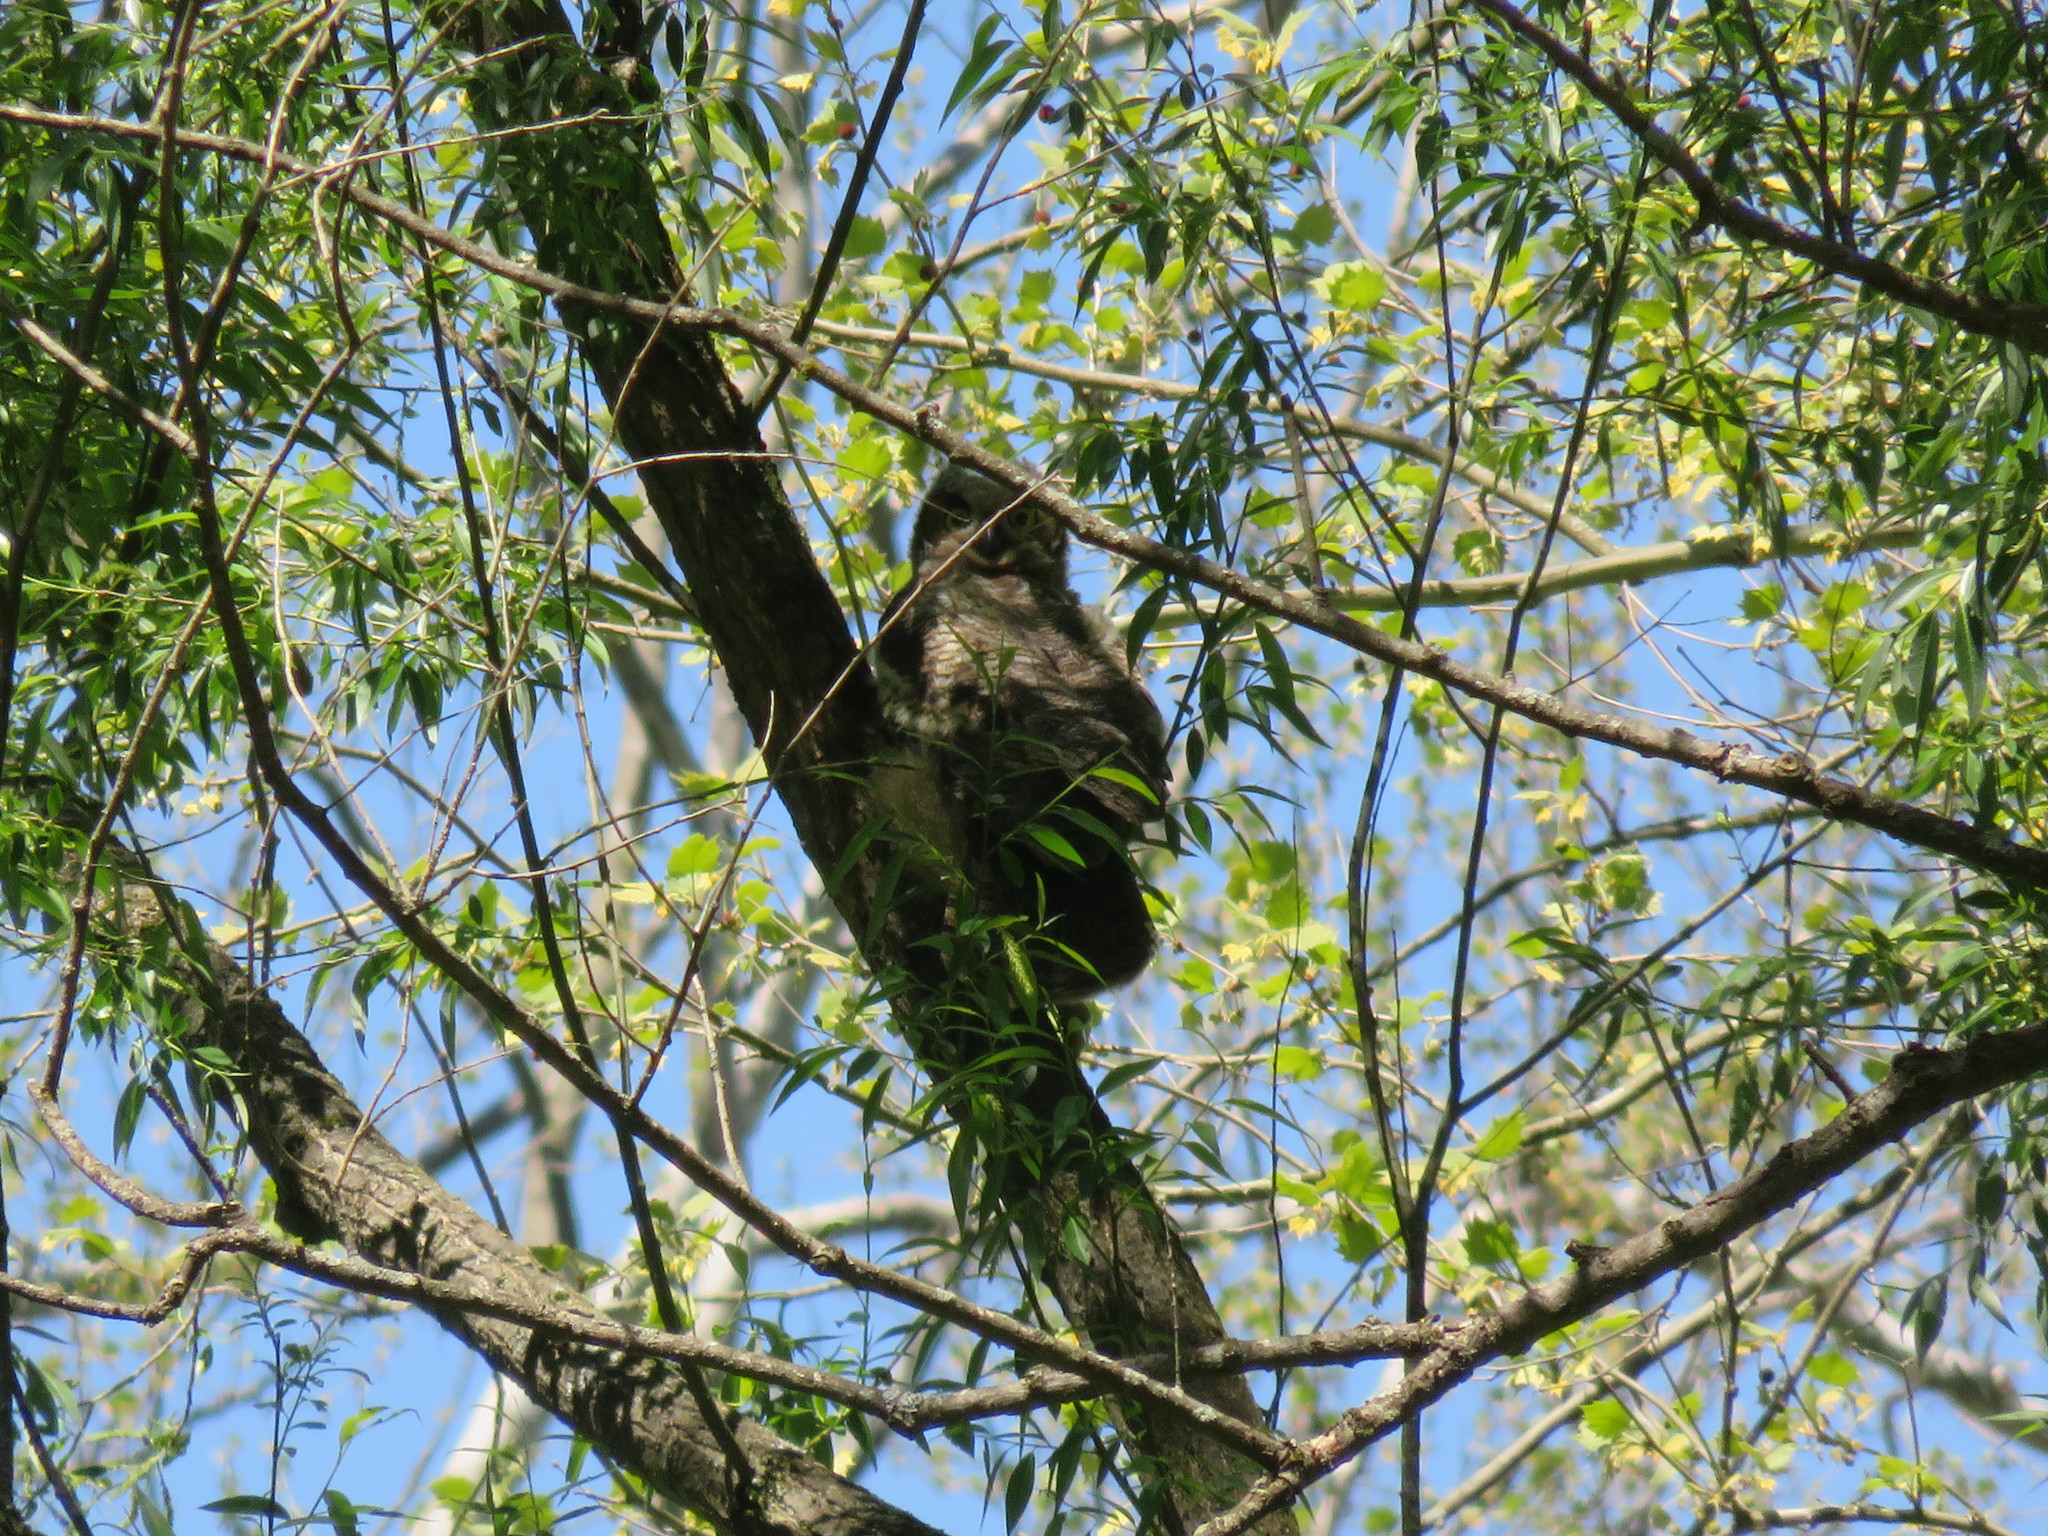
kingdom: Animalia
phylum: Chordata
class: Aves
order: Strigiformes
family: Strigidae
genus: Bubo
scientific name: Bubo virginianus
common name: Great horned owl
